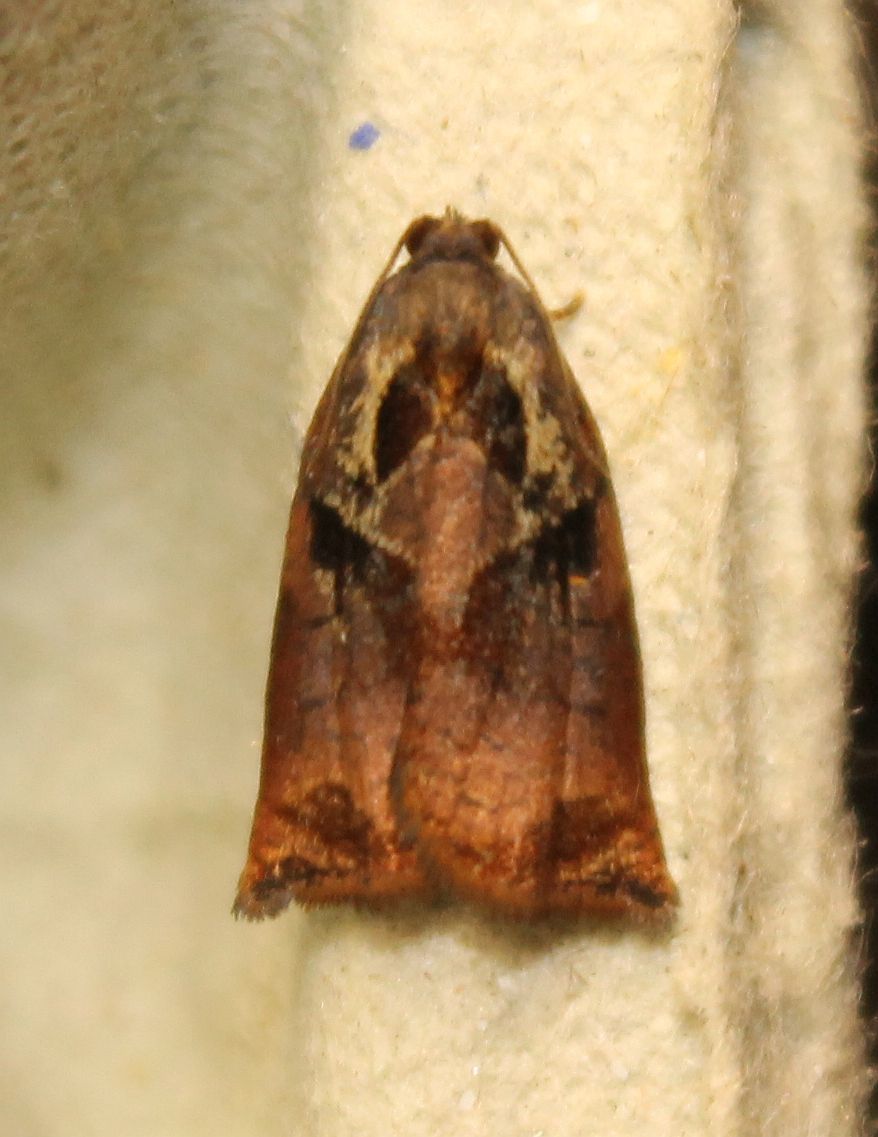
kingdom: Animalia
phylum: Arthropoda
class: Insecta
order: Lepidoptera
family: Tortricidae
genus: Archips
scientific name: Archips podana
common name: Large fruit-tree tortrix
